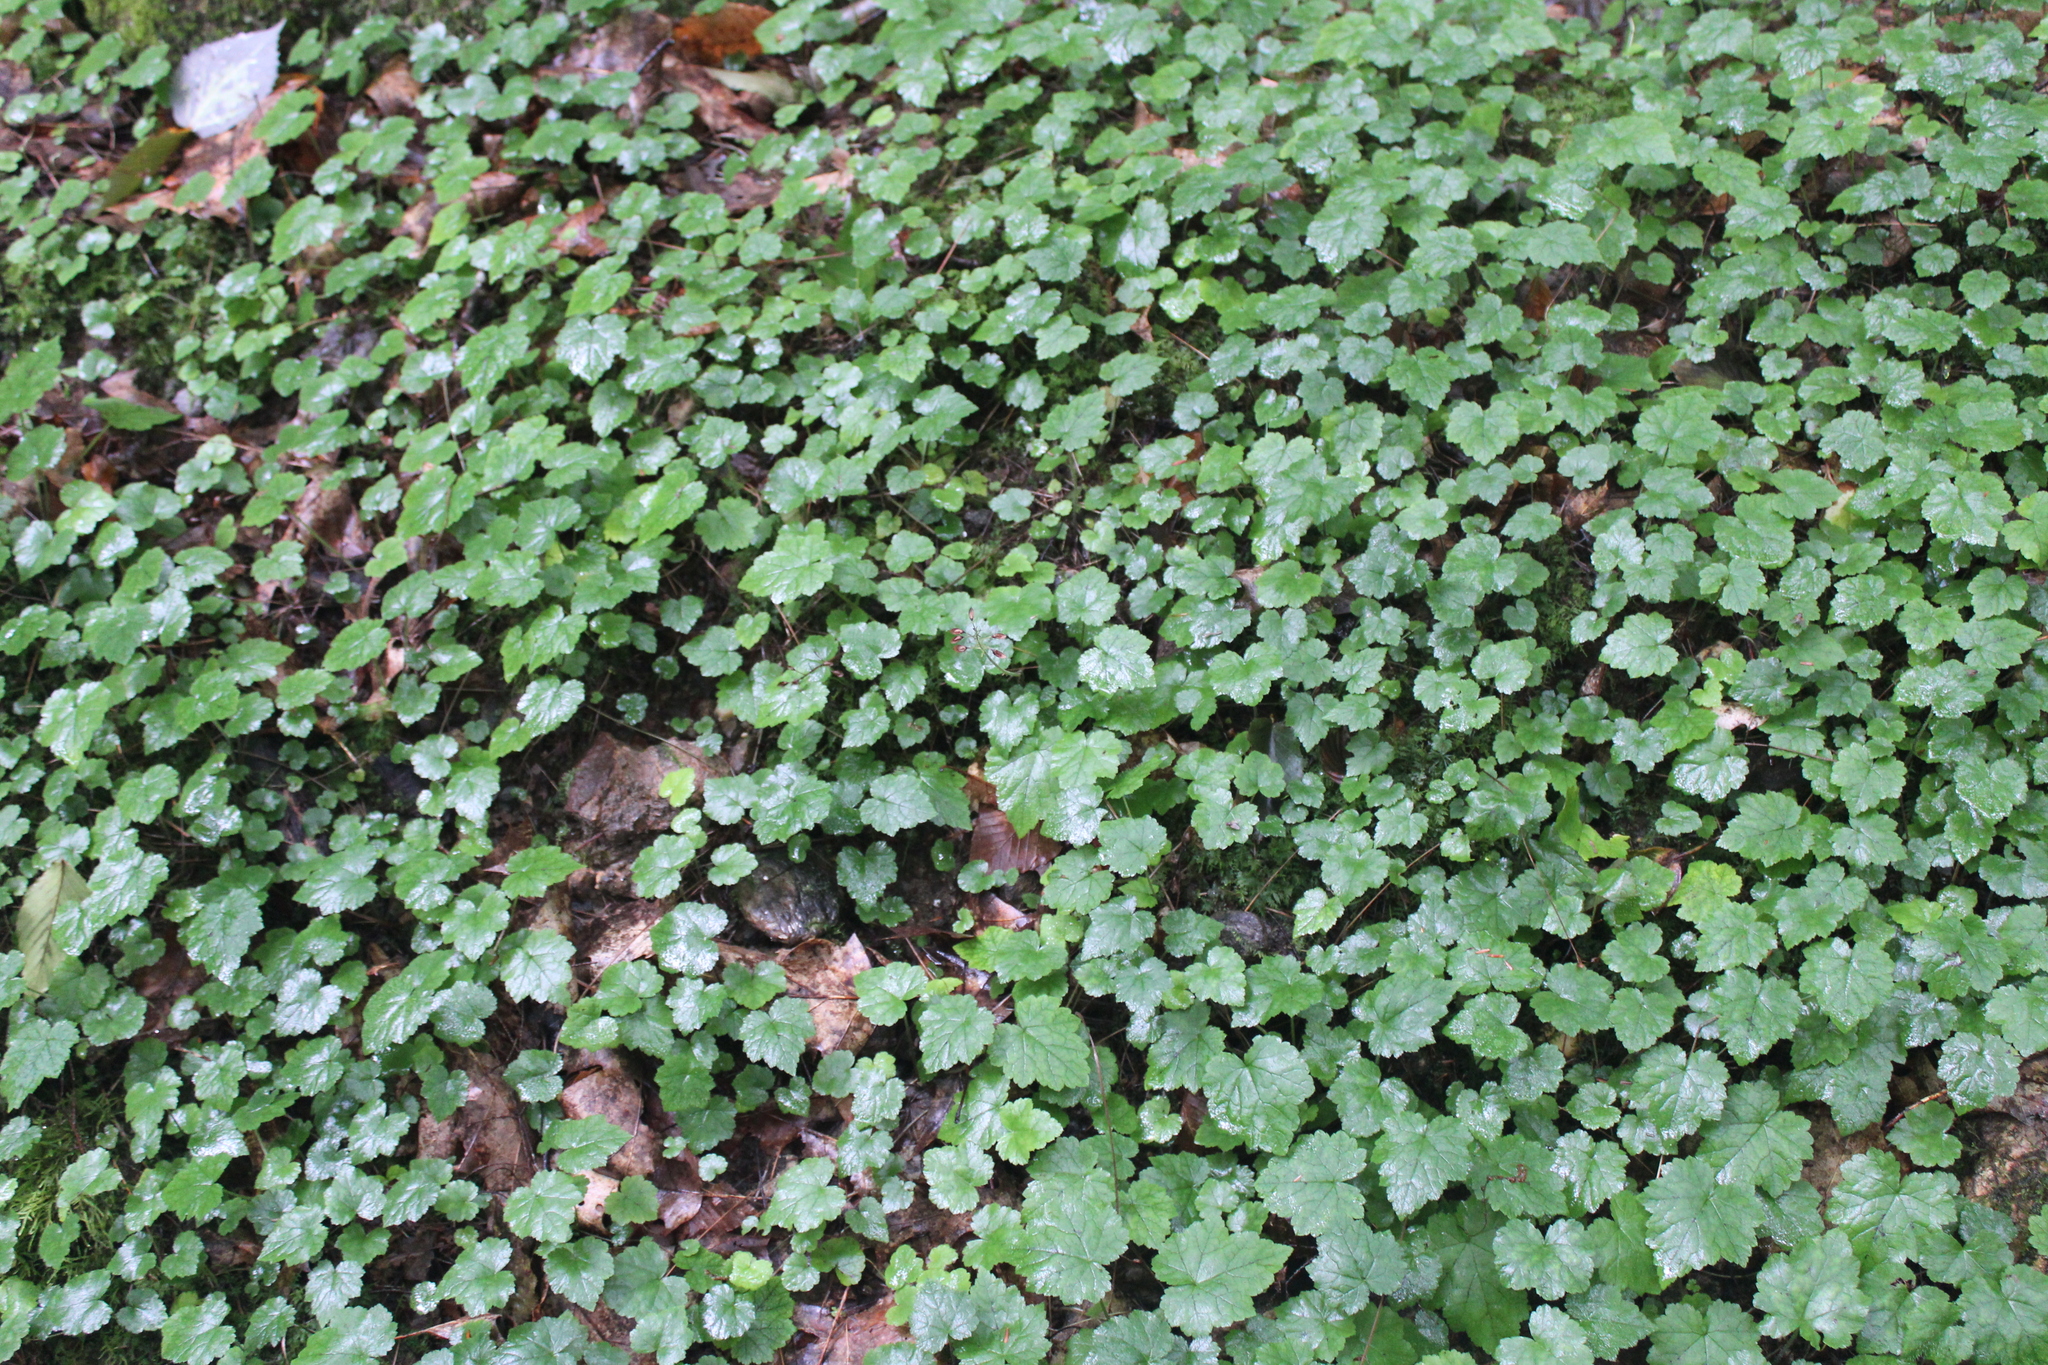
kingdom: Plantae
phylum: Tracheophyta
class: Magnoliopsida
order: Saxifragales
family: Saxifragaceae
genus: Tiarella
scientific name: Tiarella stolonifera
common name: Stoloniferous foamflower
